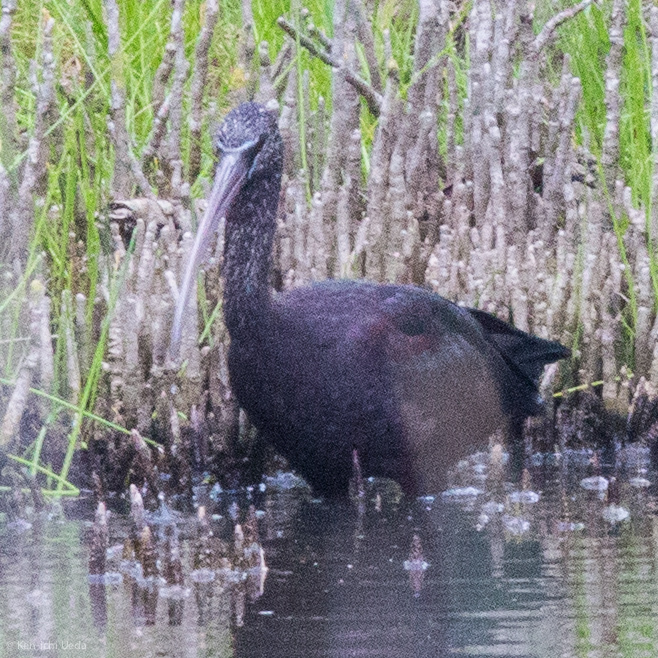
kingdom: Animalia
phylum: Chordata
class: Aves
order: Pelecaniformes
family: Threskiornithidae
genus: Plegadis
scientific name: Plegadis falcinellus
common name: Glossy ibis
